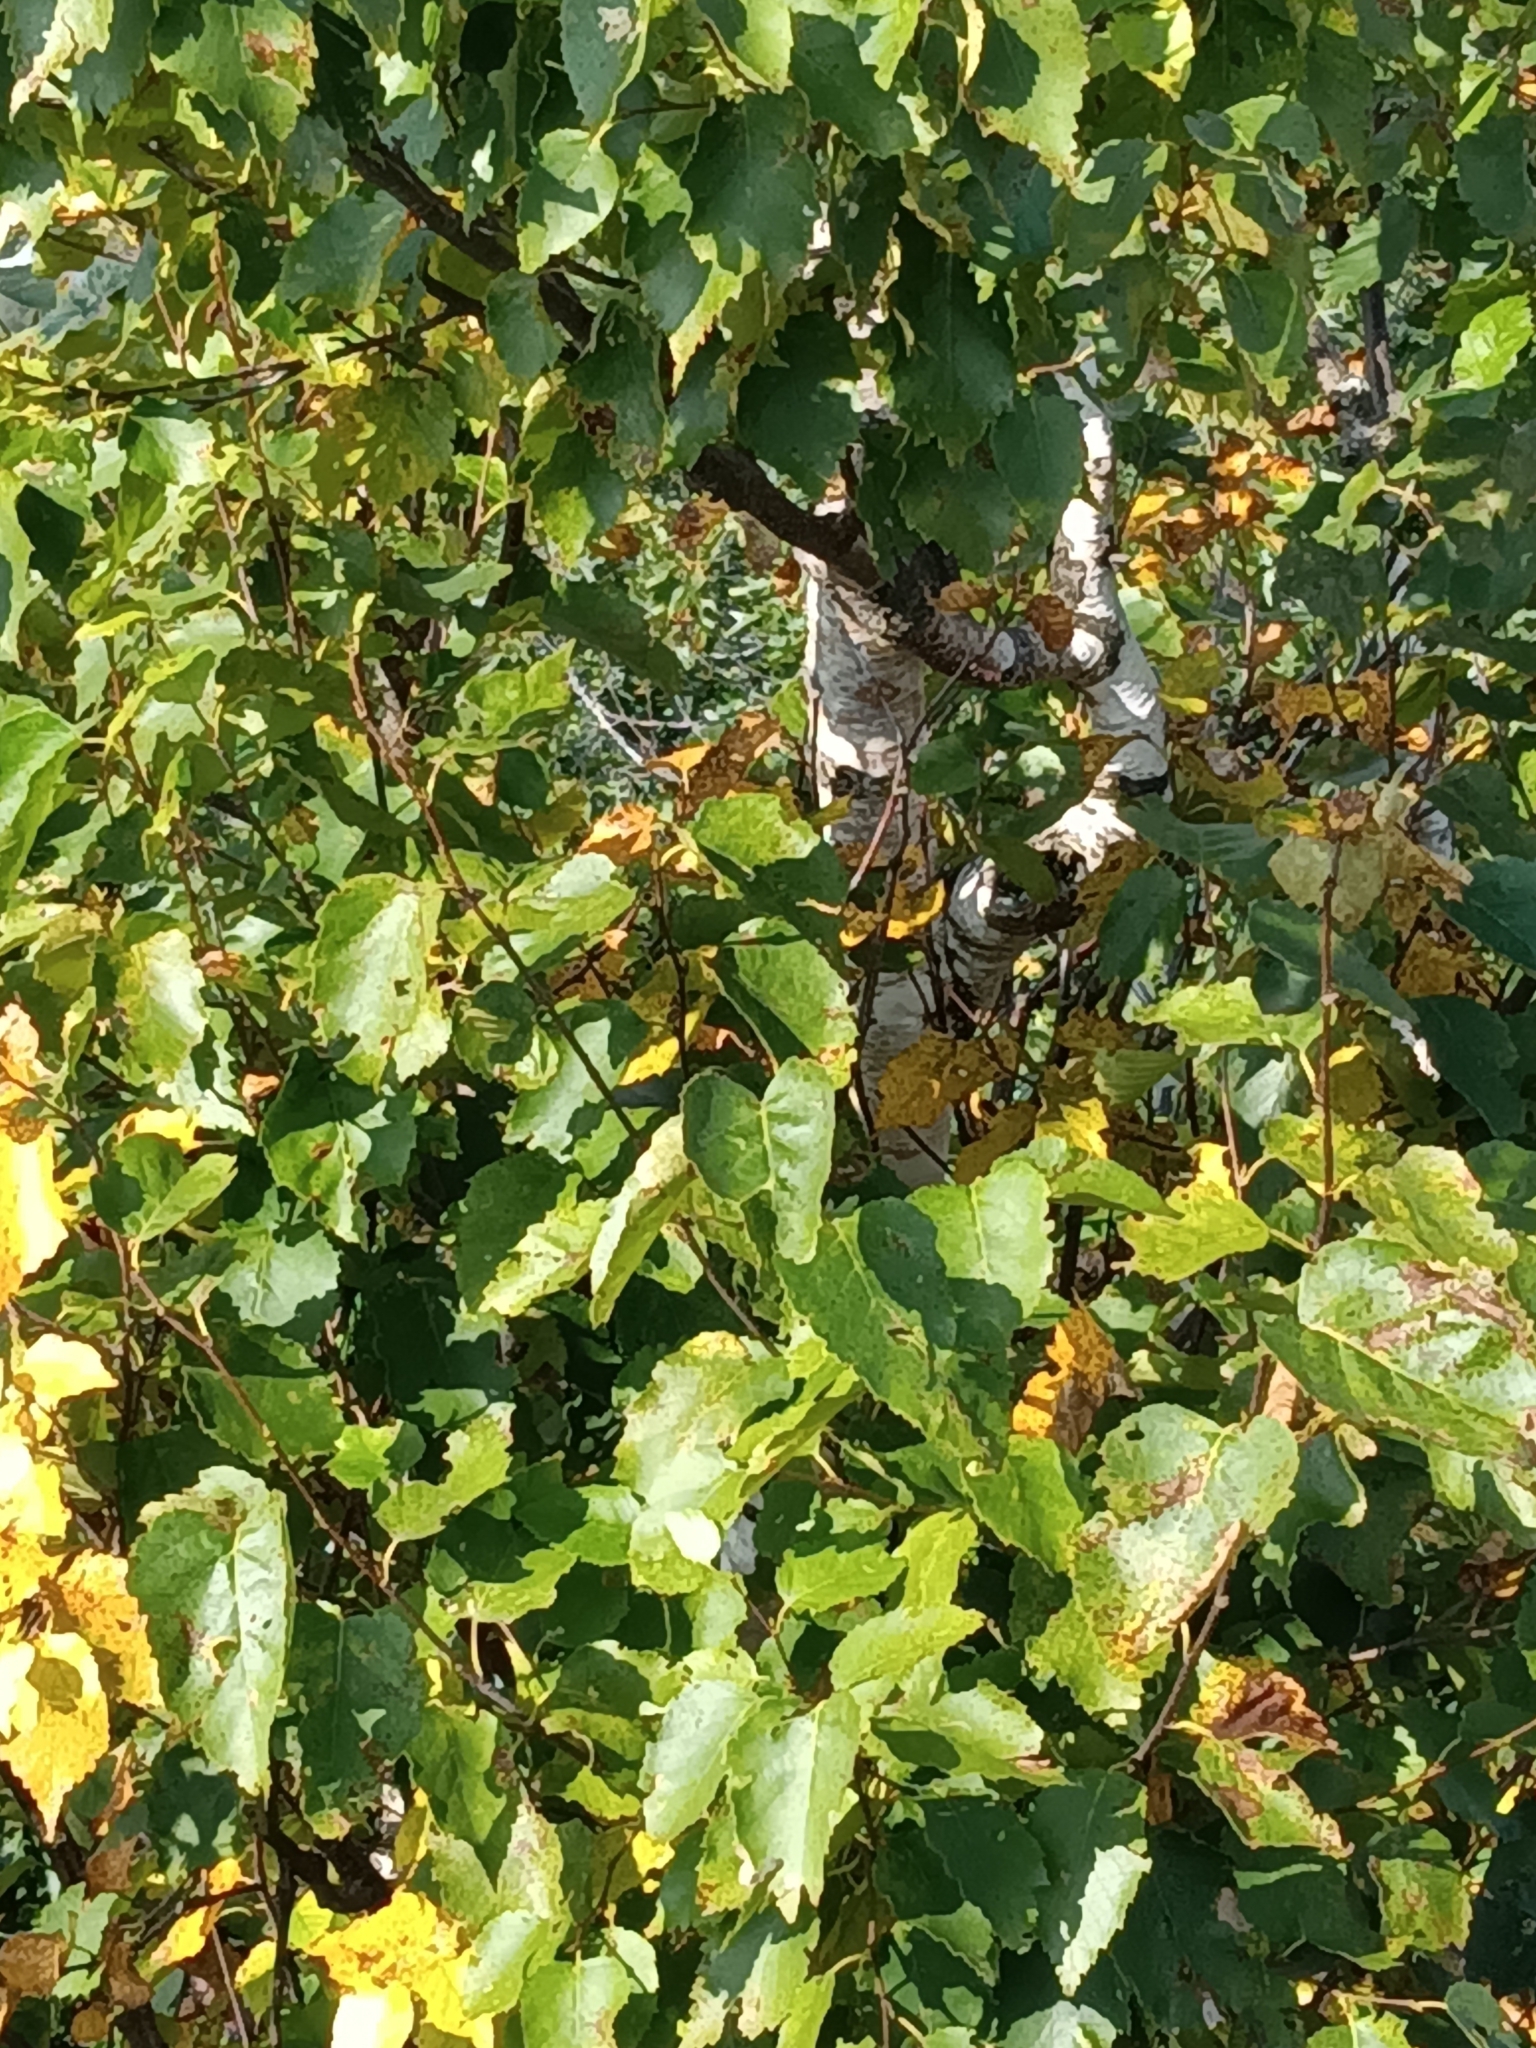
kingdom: Plantae
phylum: Tracheophyta
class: Magnoliopsida
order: Fagales
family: Betulaceae
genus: Betula
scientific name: Betula papyrifera
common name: Paper birch
